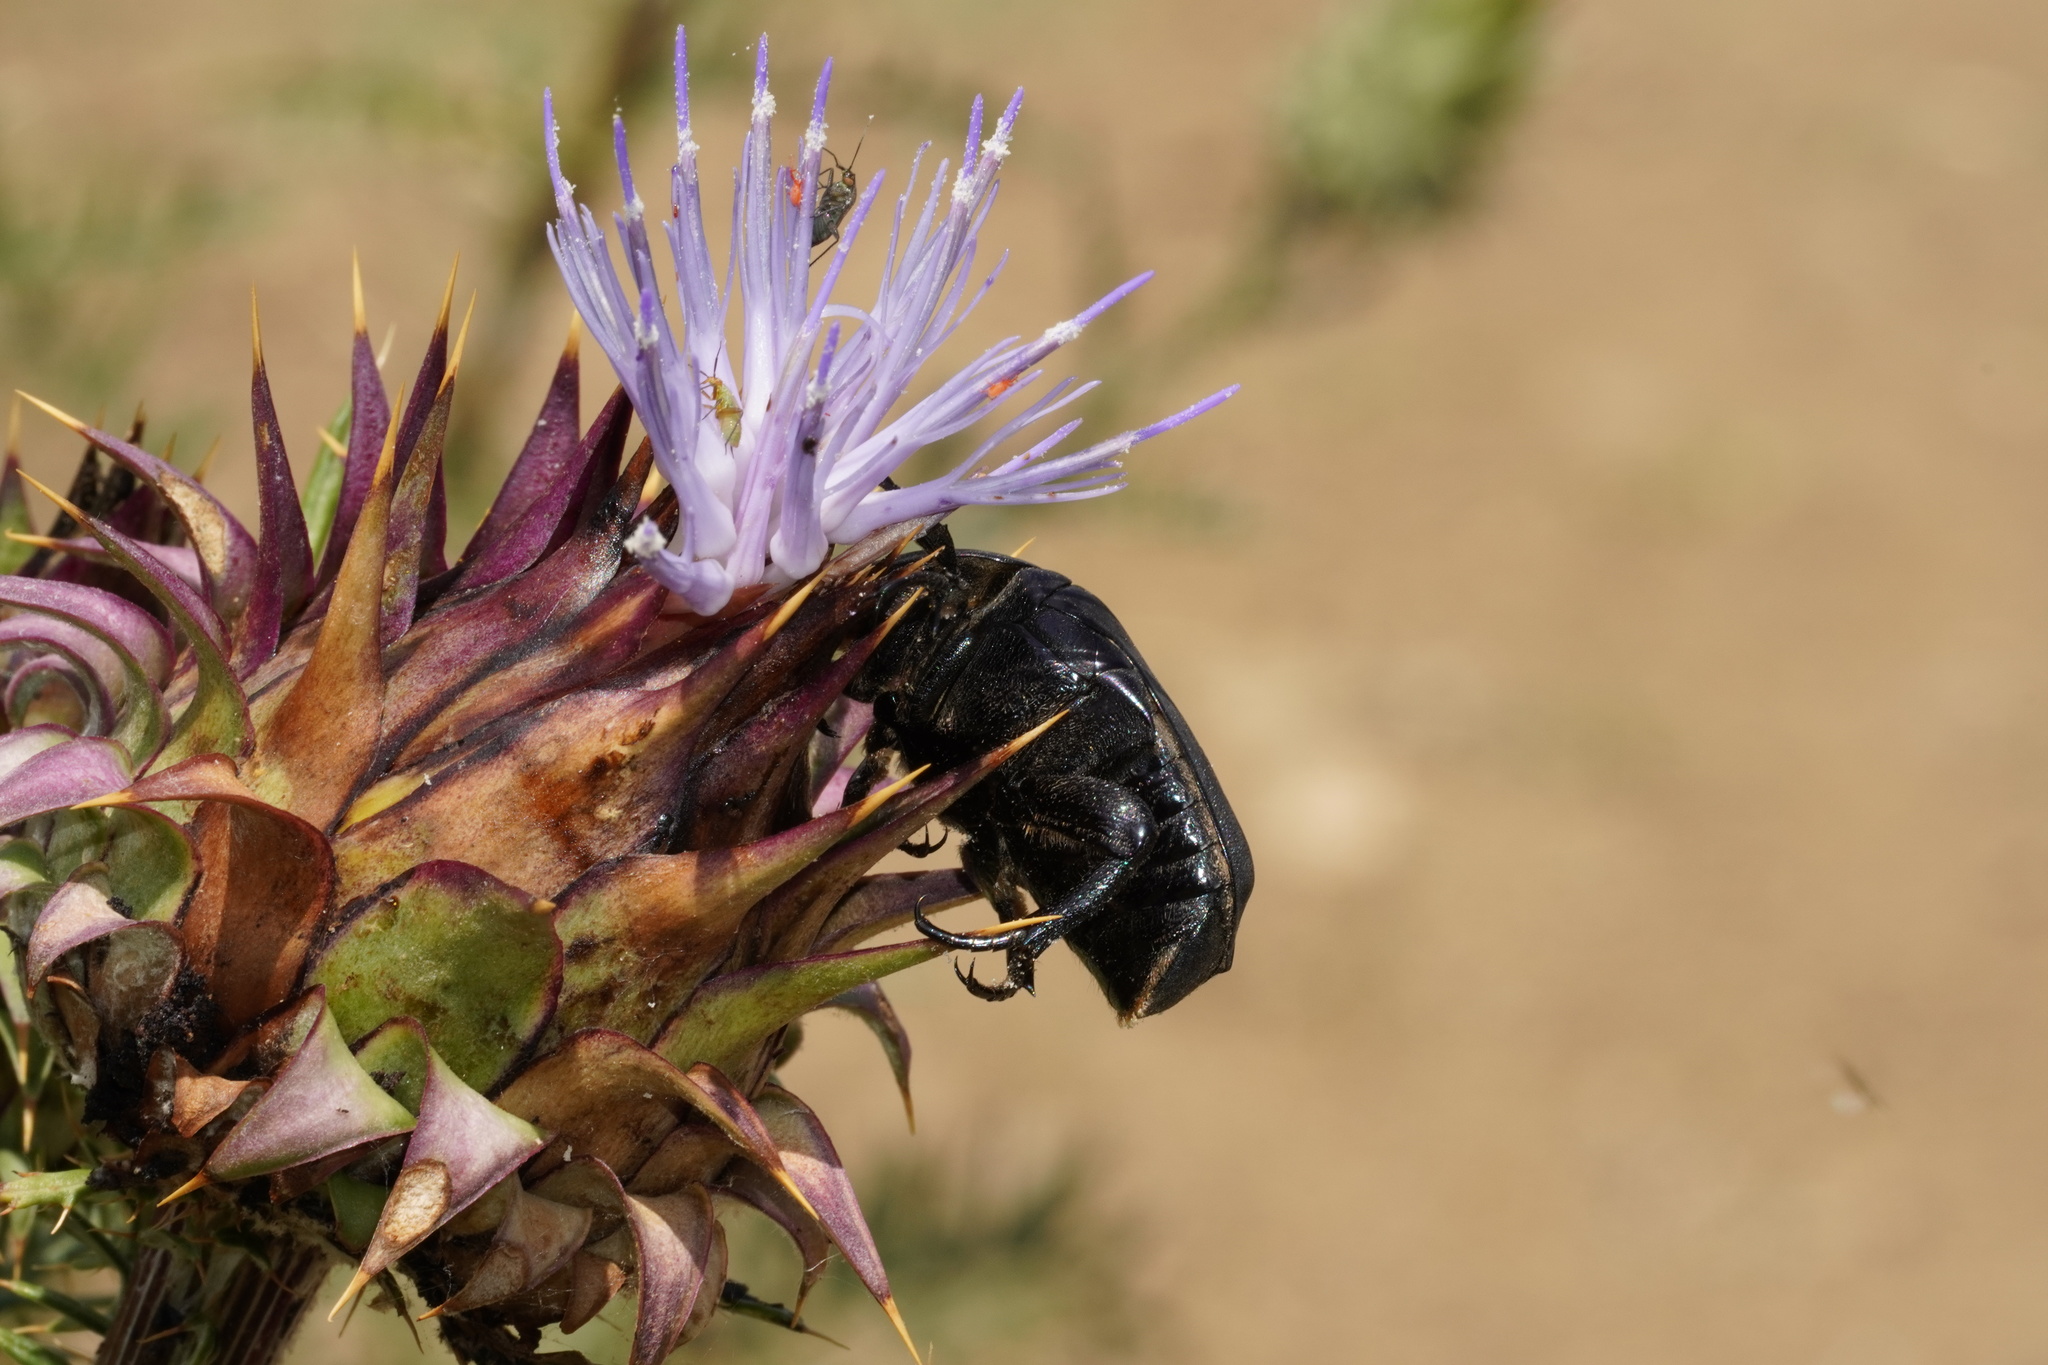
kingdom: Animalia
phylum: Arthropoda
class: Insecta
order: Coleoptera
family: Scarabaeidae
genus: Protaetia
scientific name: Protaetia opaca
